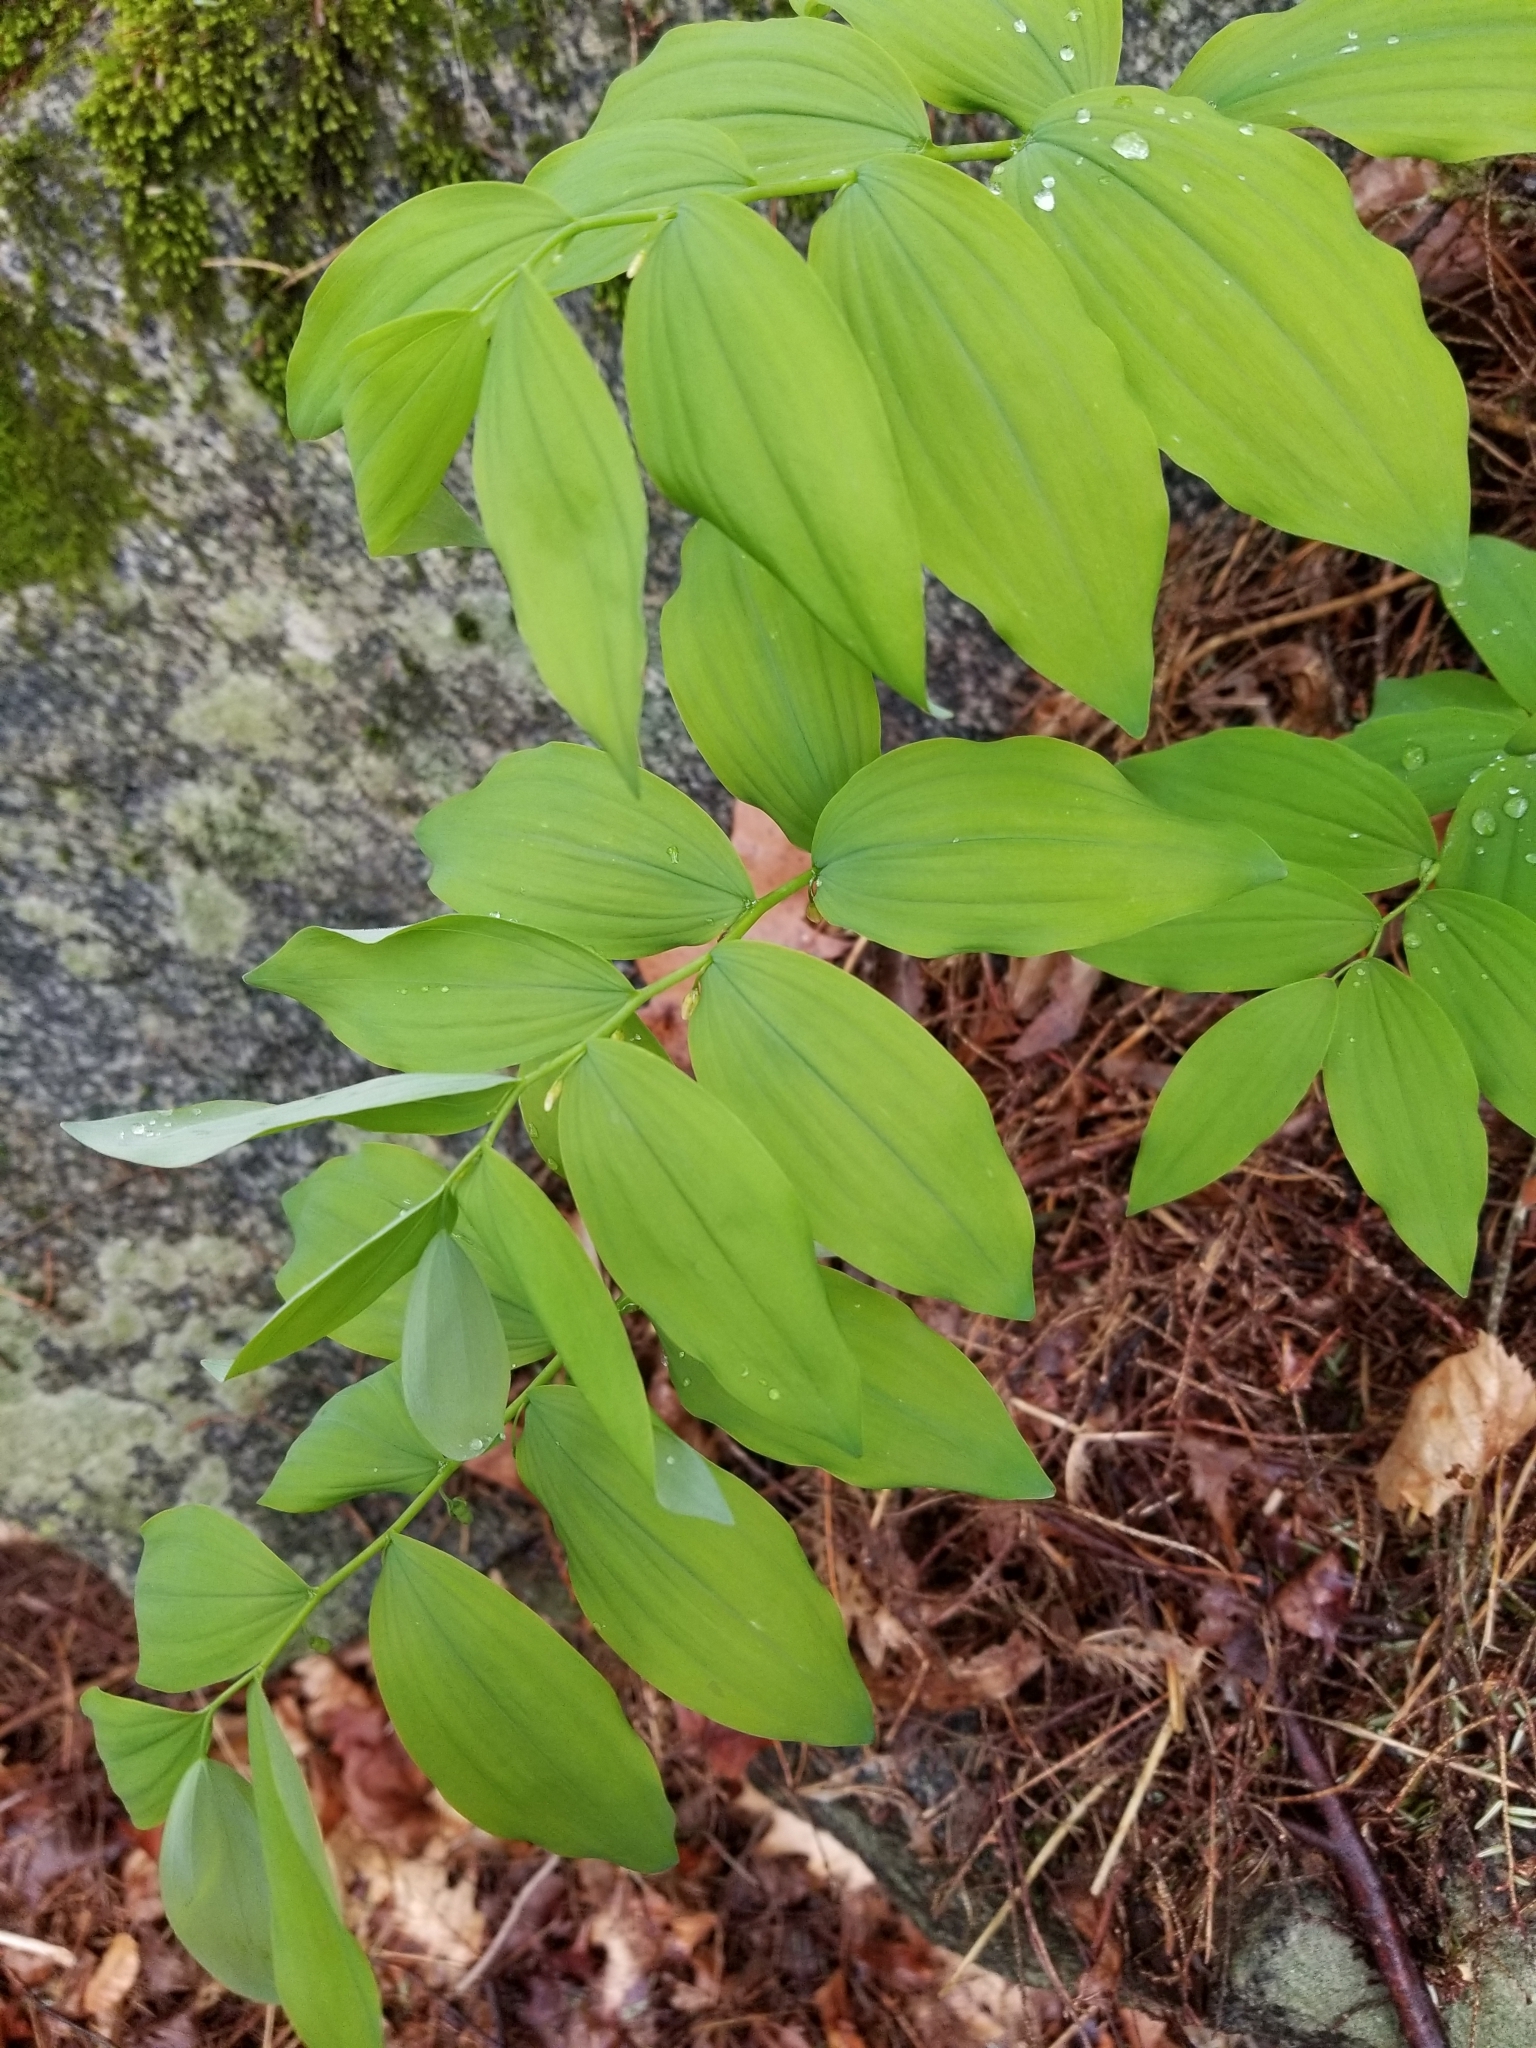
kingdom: Plantae
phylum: Tracheophyta
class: Liliopsida
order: Asparagales
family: Asparagaceae
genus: Polygonatum
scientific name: Polygonatum pubescens
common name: Downy solomon's seal
